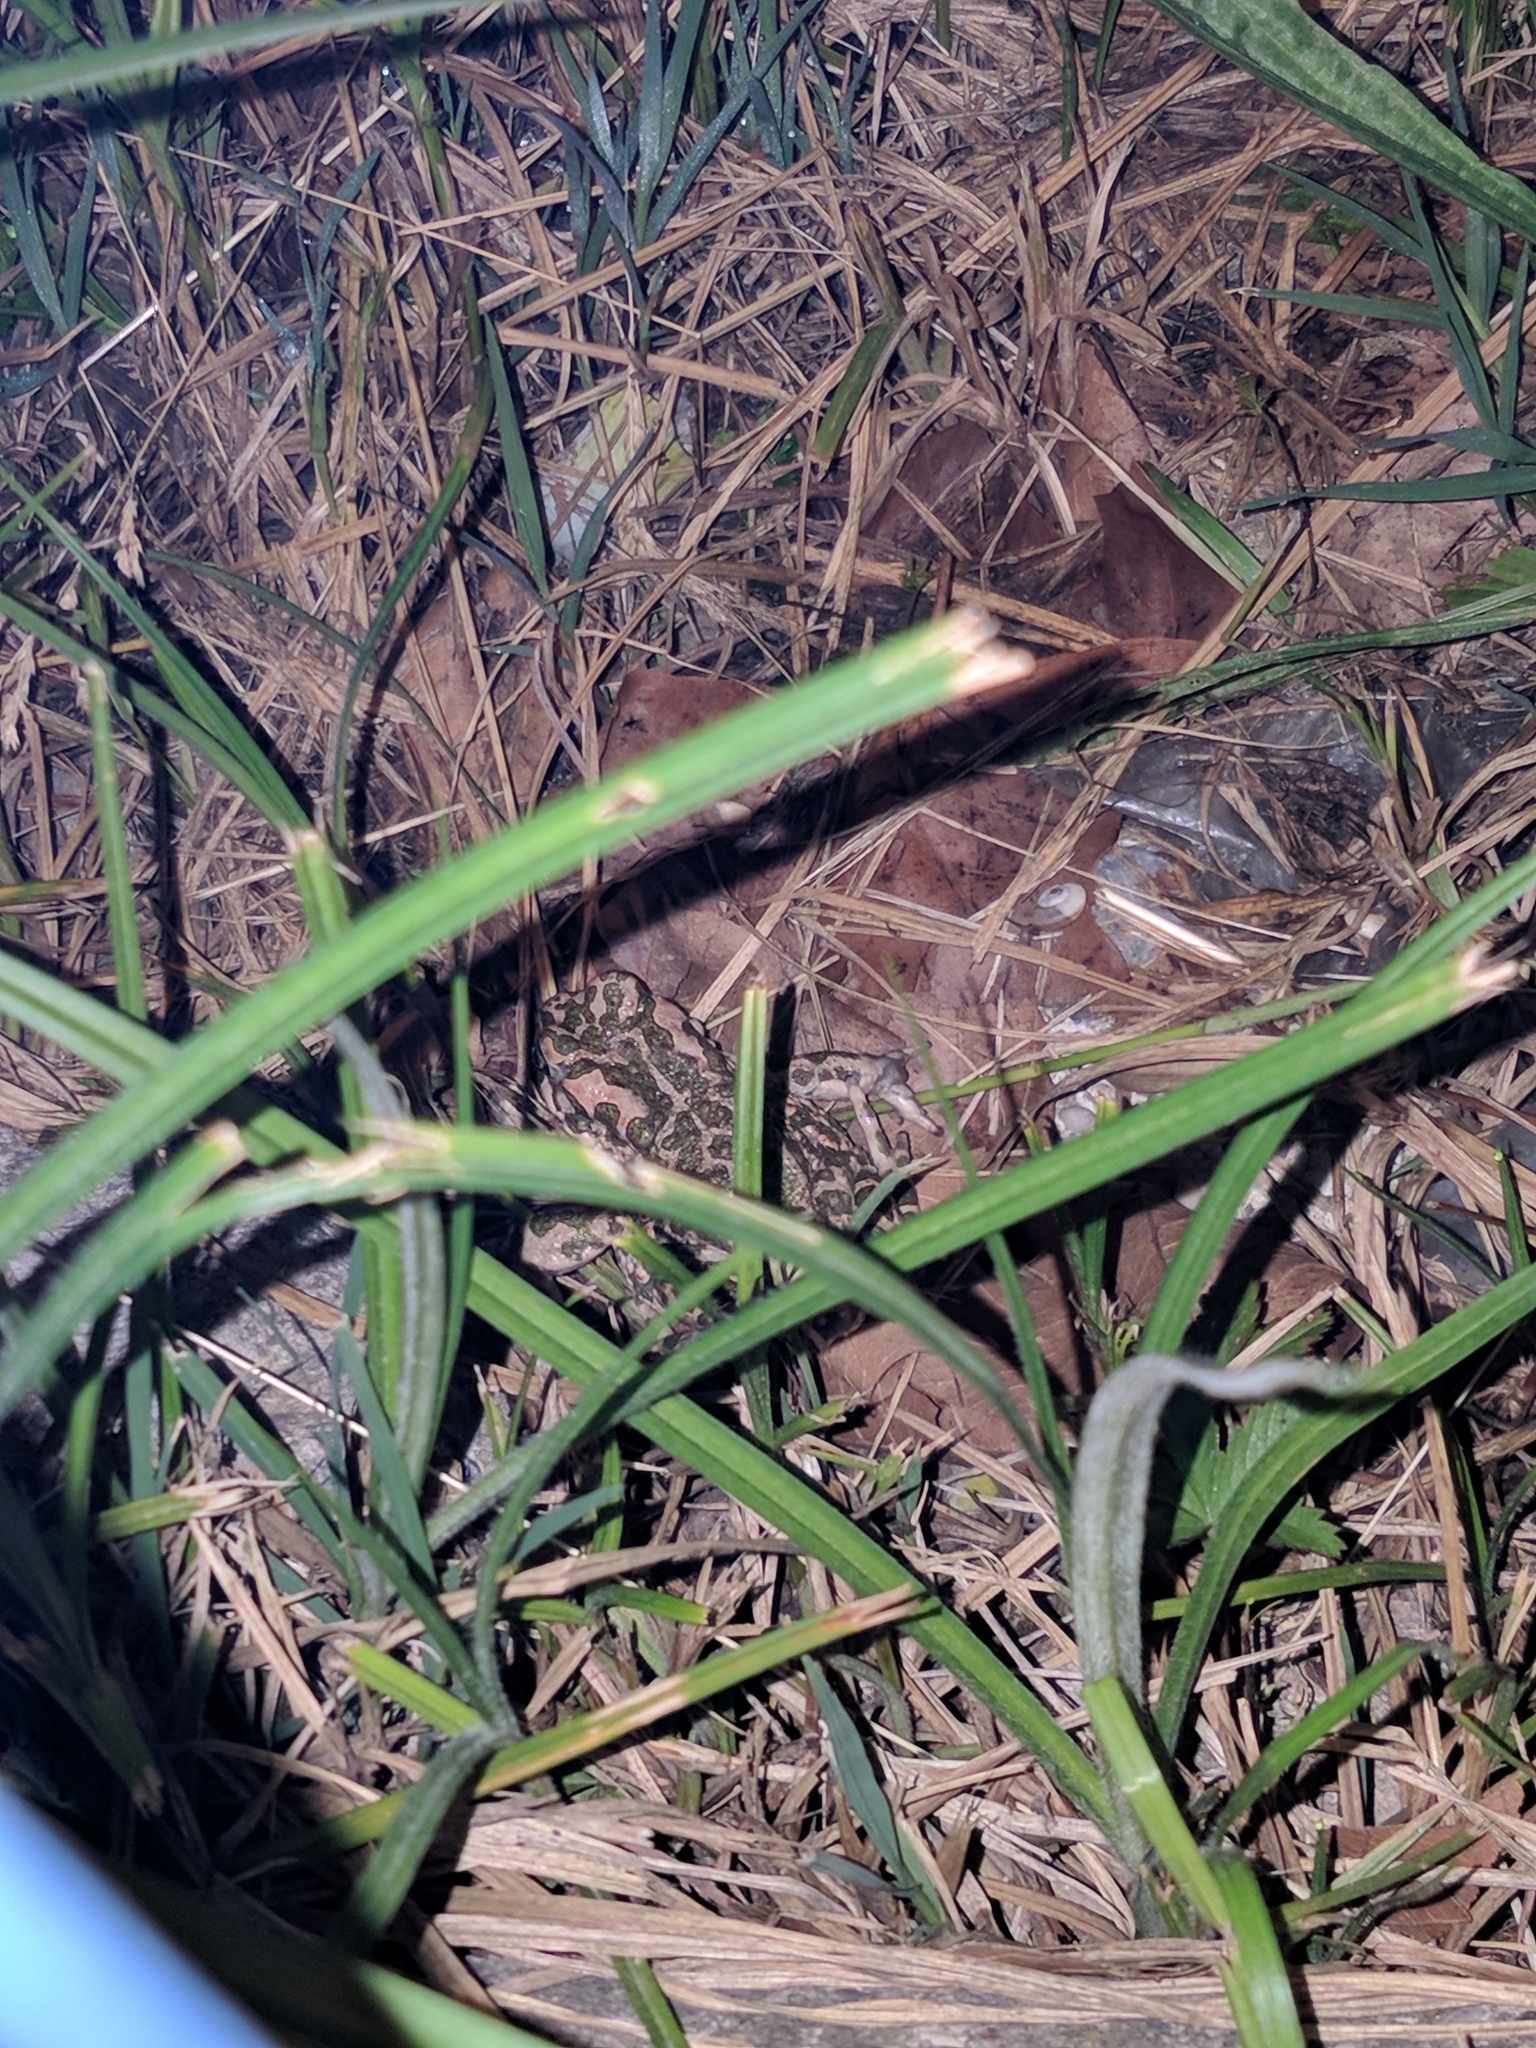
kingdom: Animalia
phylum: Chordata
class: Amphibia
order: Anura
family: Bufonidae
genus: Bufotes
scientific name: Bufotes viridis
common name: European green toad
